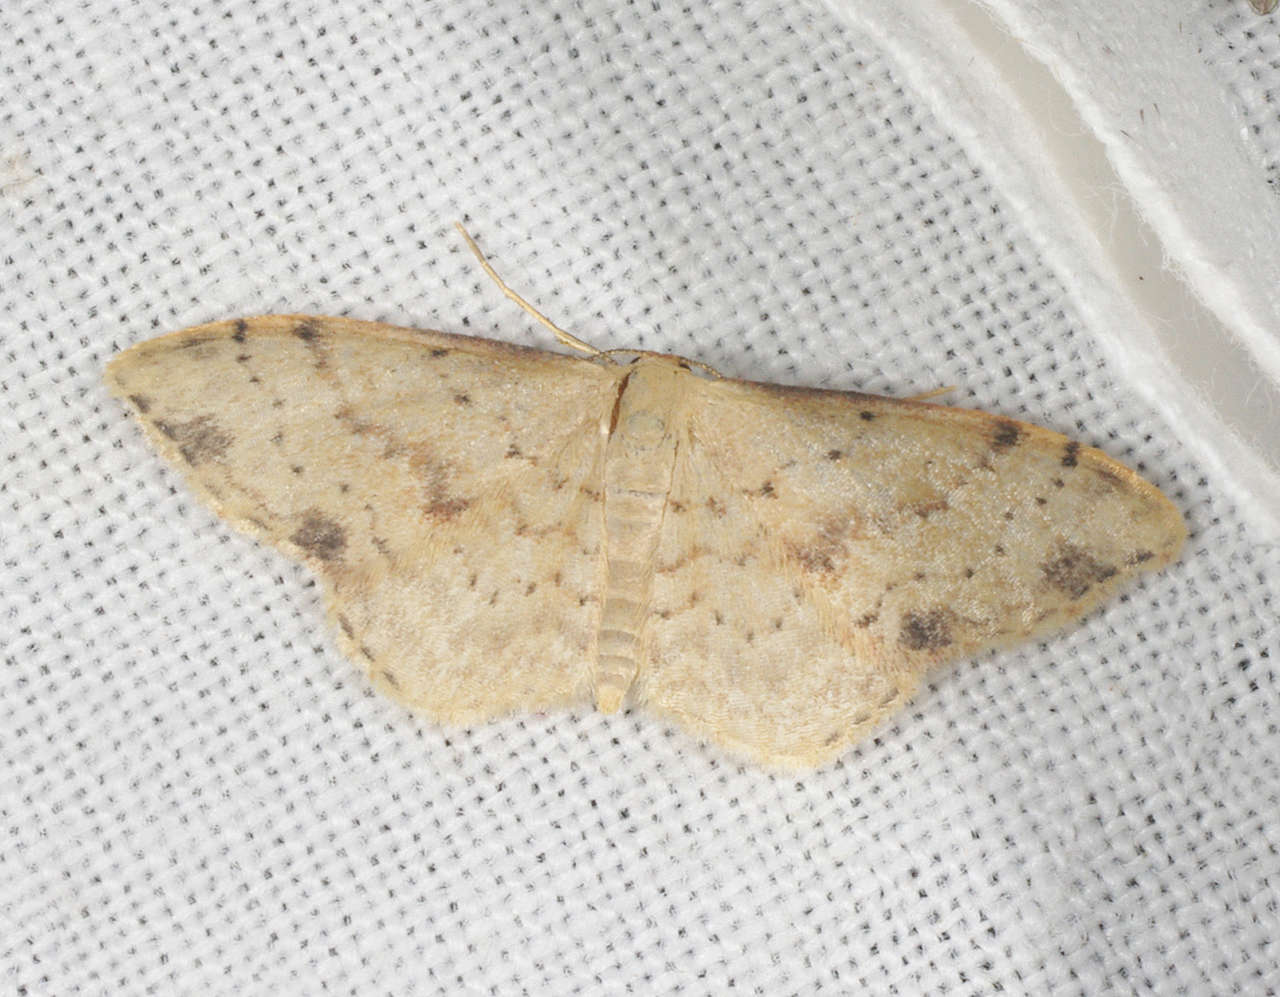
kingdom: Animalia
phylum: Arthropoda
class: Insecta
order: Lepidoptera
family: Geometridae
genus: Idaea
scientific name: Idaea halmaea
